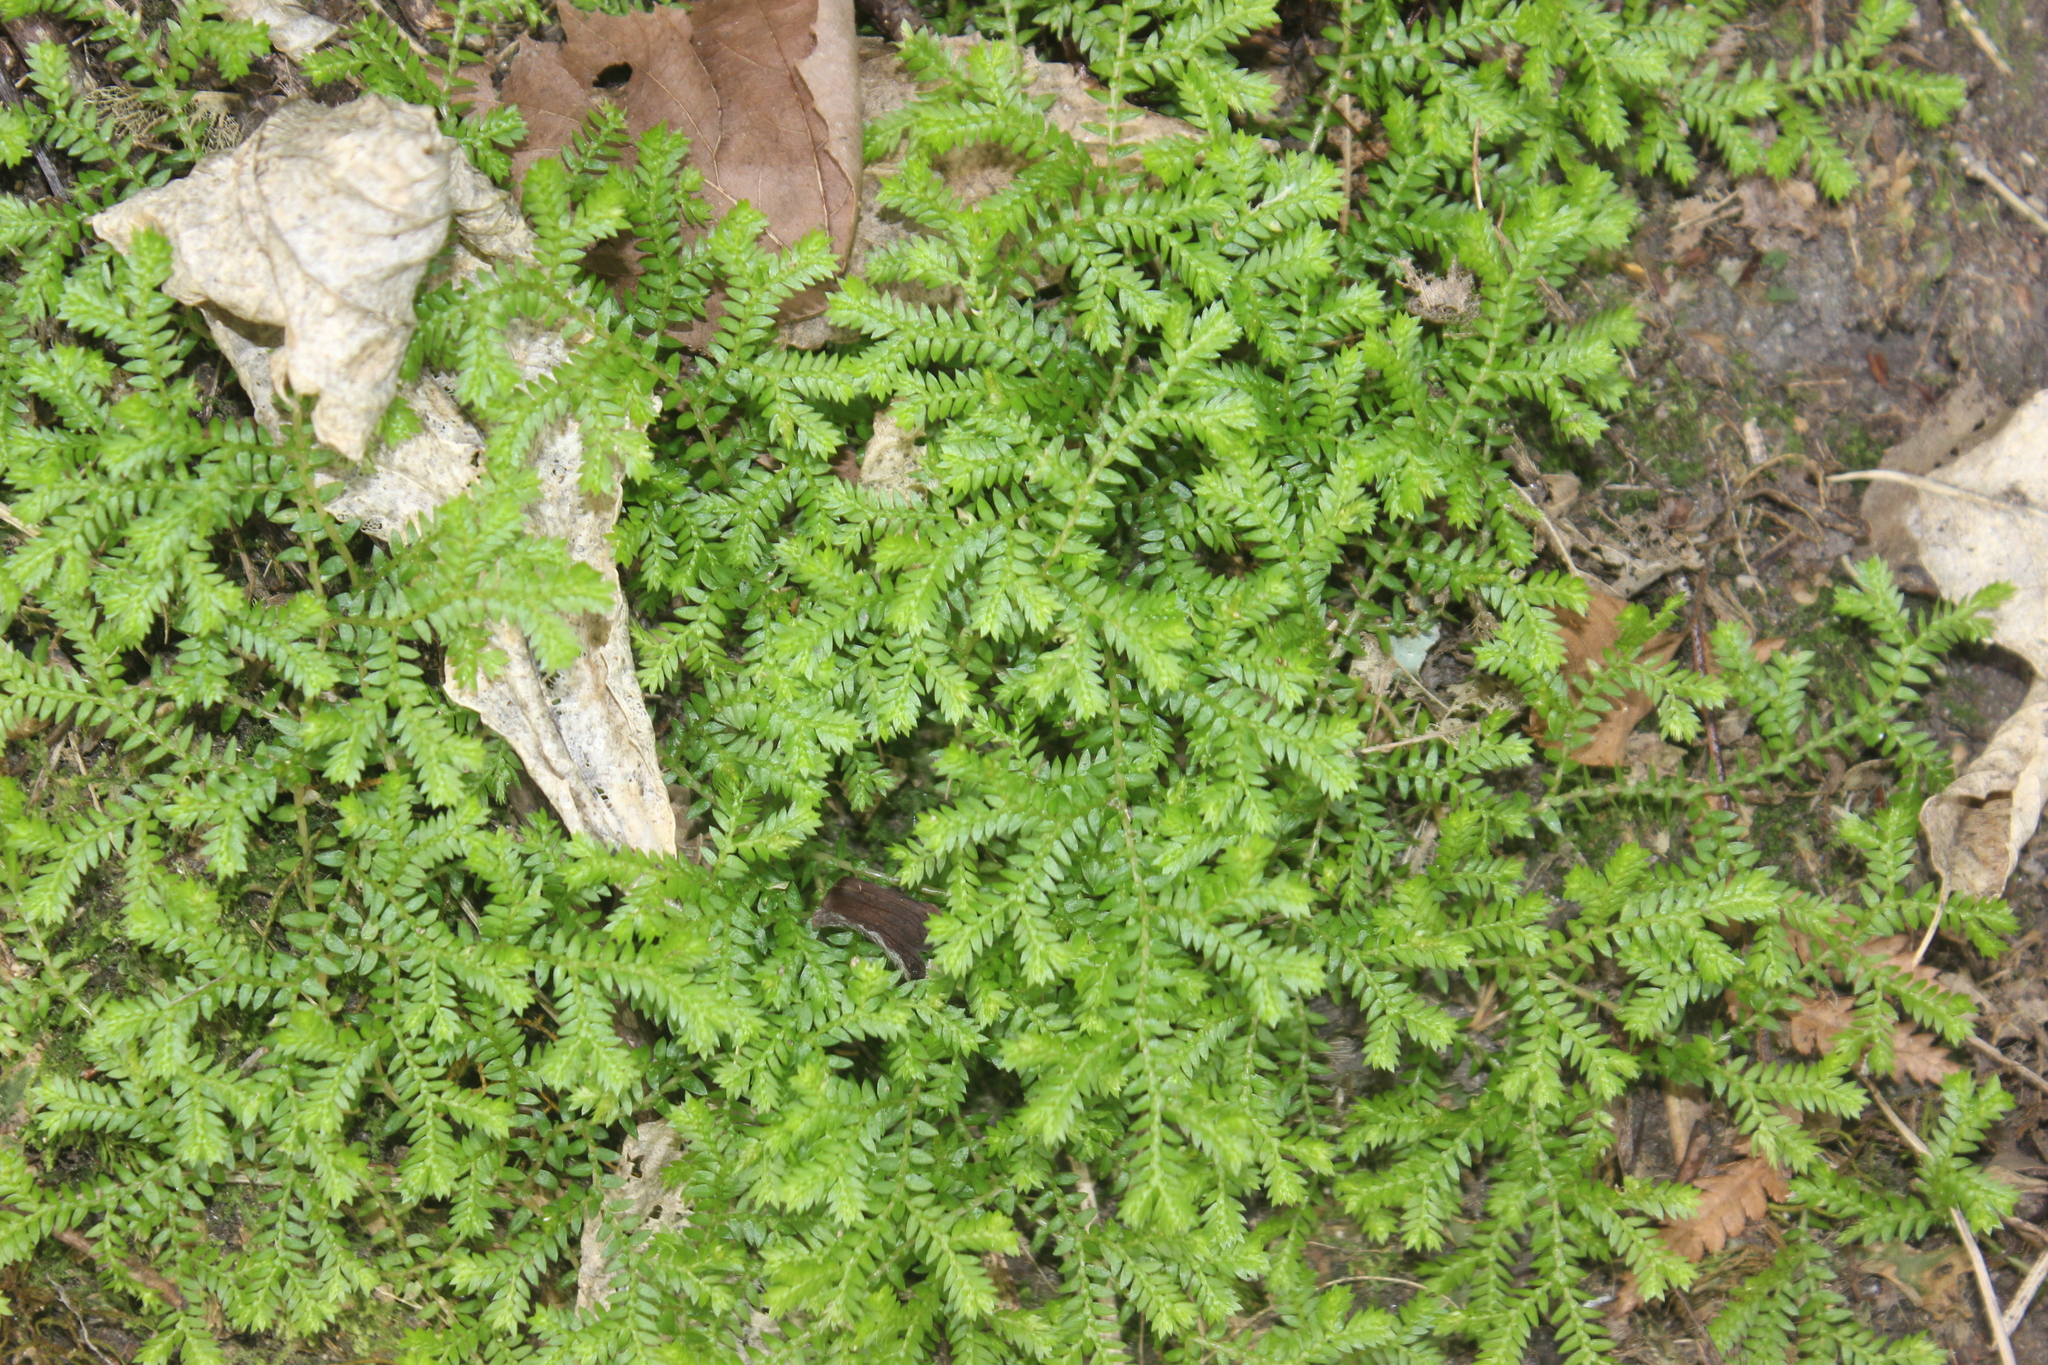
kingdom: Plantae
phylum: Tracheophyta
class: Lycopodiopsida
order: Selaginellales
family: Selaginellaceae
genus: Selaginella
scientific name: Selaginella kraussiana
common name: Krauss' spikemoss
